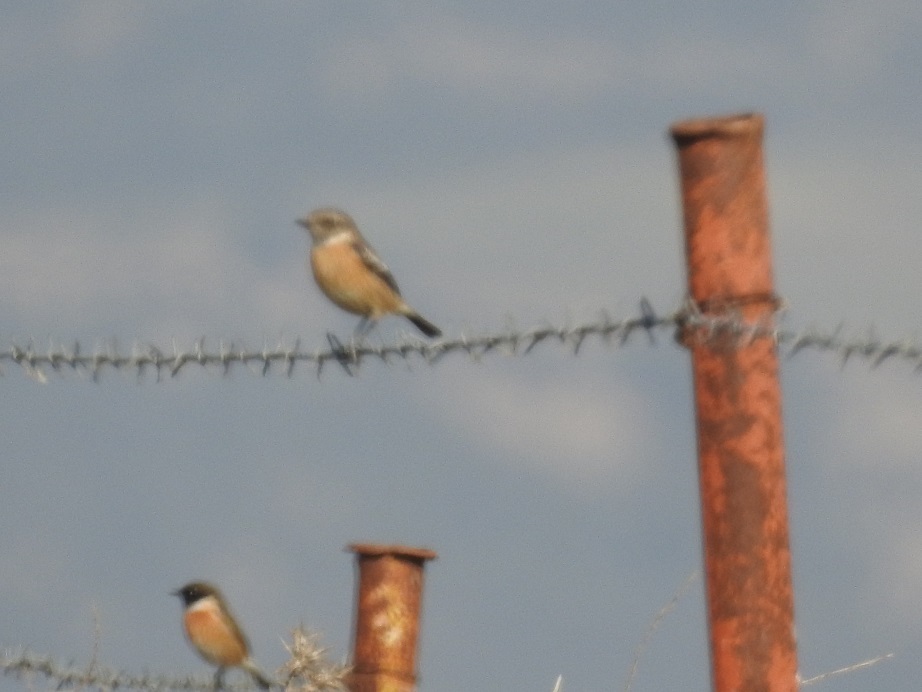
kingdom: Animalia
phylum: Chordata
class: Aves
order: Passeriformes
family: Muscicapidae
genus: Saxicola
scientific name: Saxicola rubicola
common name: European stonechat
